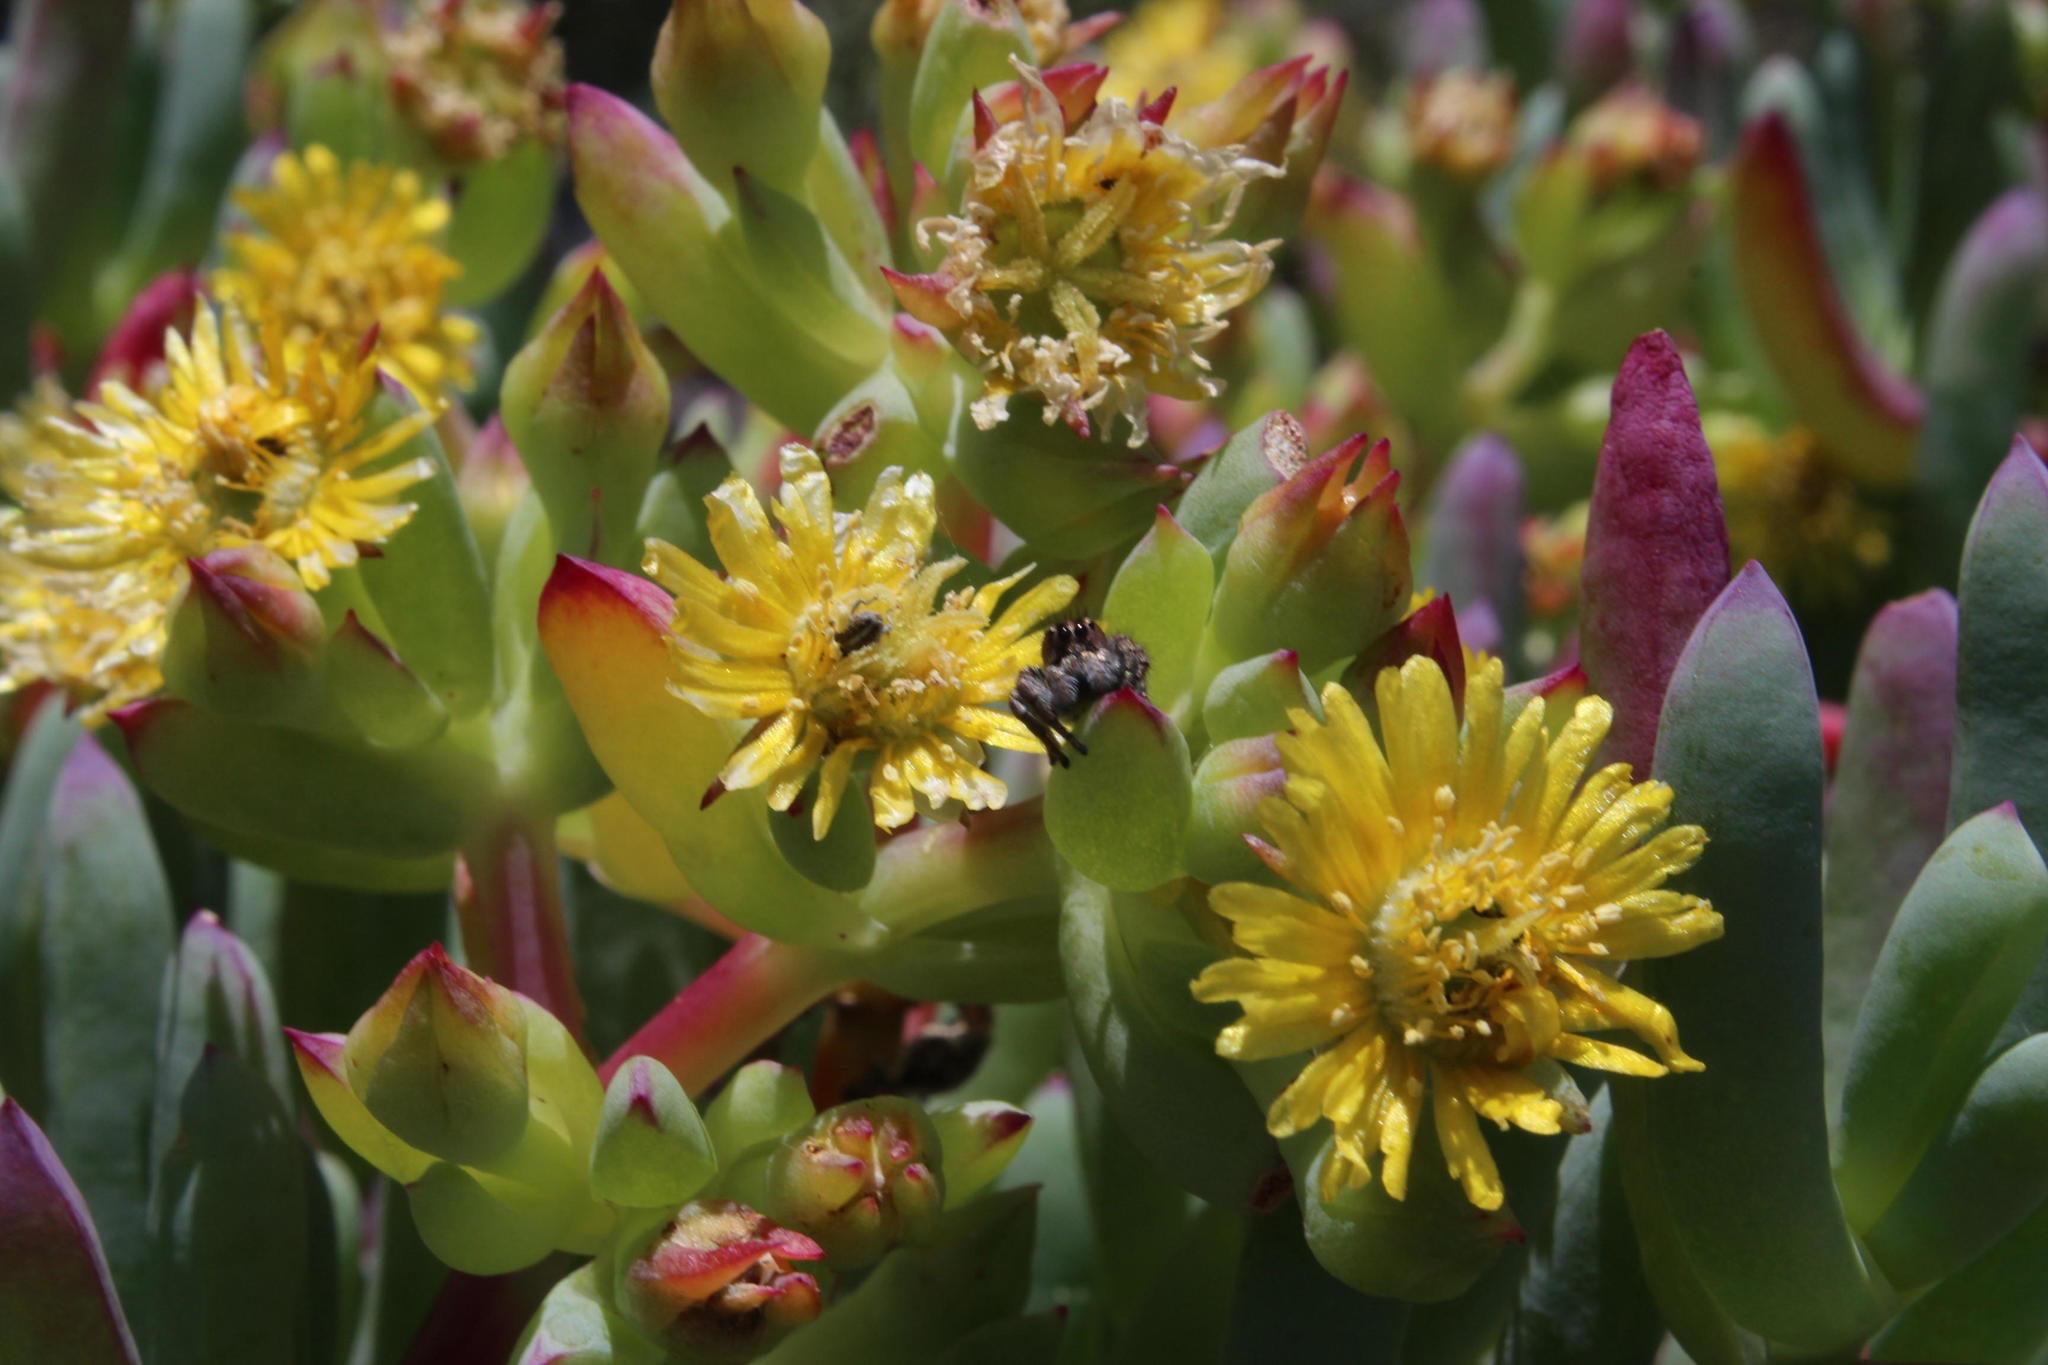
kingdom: Plantae
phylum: Tracheophyta
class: Magnoliopsida
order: Caryophyllales
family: Aizoaceae
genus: Scopelogena
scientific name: Scopelogena verruculata
